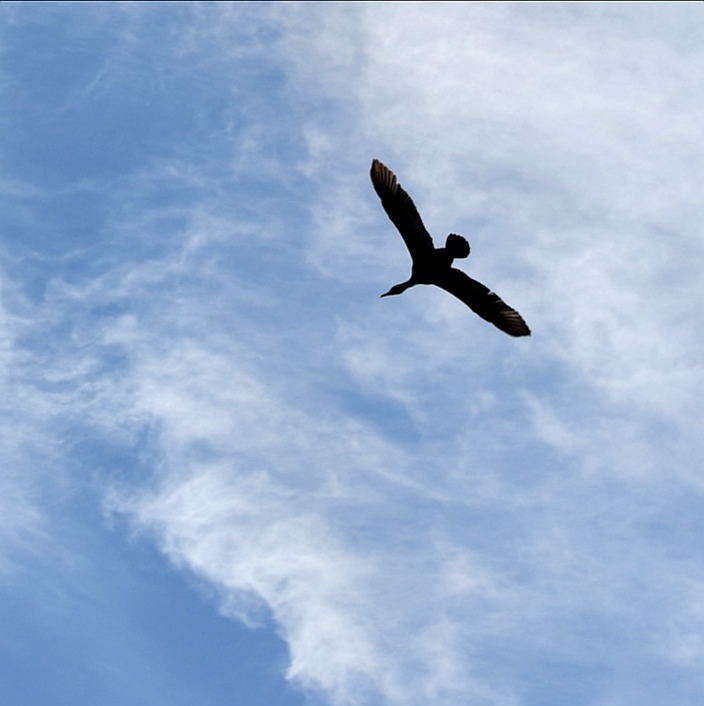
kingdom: Animalia
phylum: Chordata
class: Aves
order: Suliformes
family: Phalacrocoracidae
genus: Phalacrocorax
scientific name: Phalacrocorax auritus
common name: Double-crested cormorant
